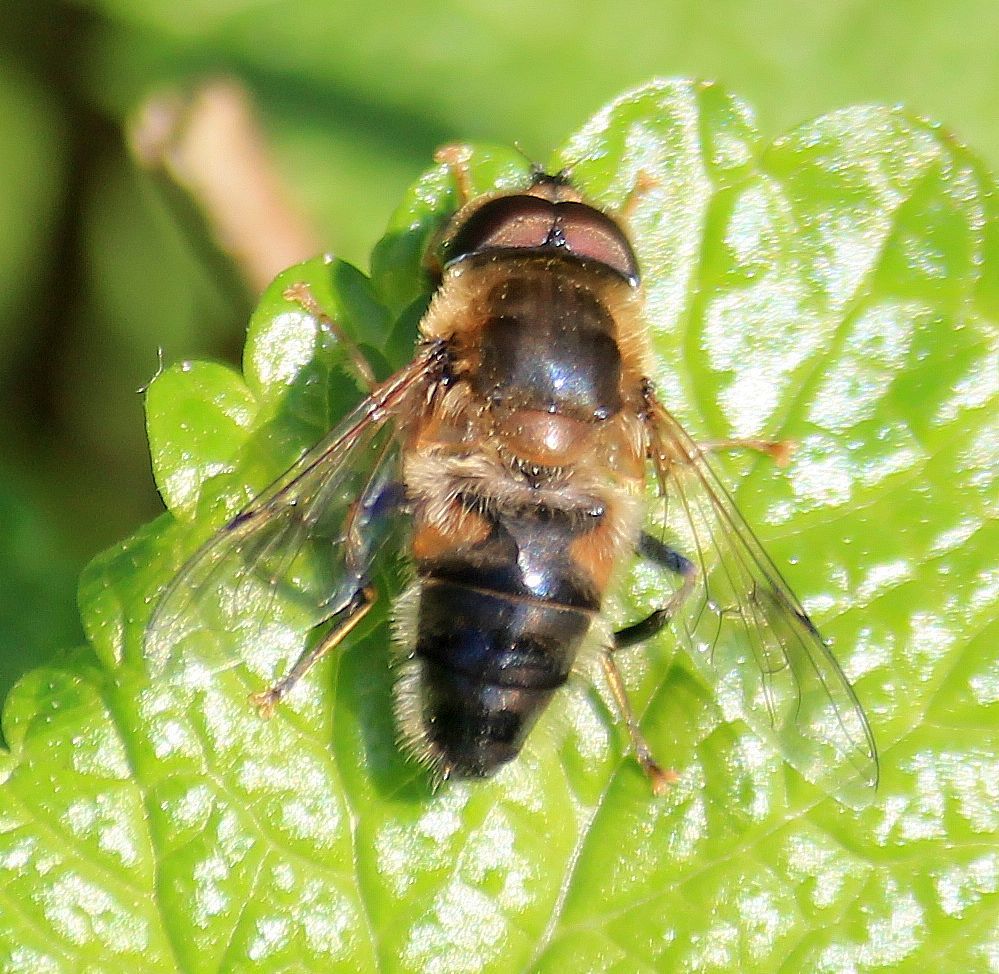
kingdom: Animalia
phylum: Arthropoda
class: Insecta
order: Diptera
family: Syrphidae
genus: Eristalis
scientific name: Eristalis pertinax
